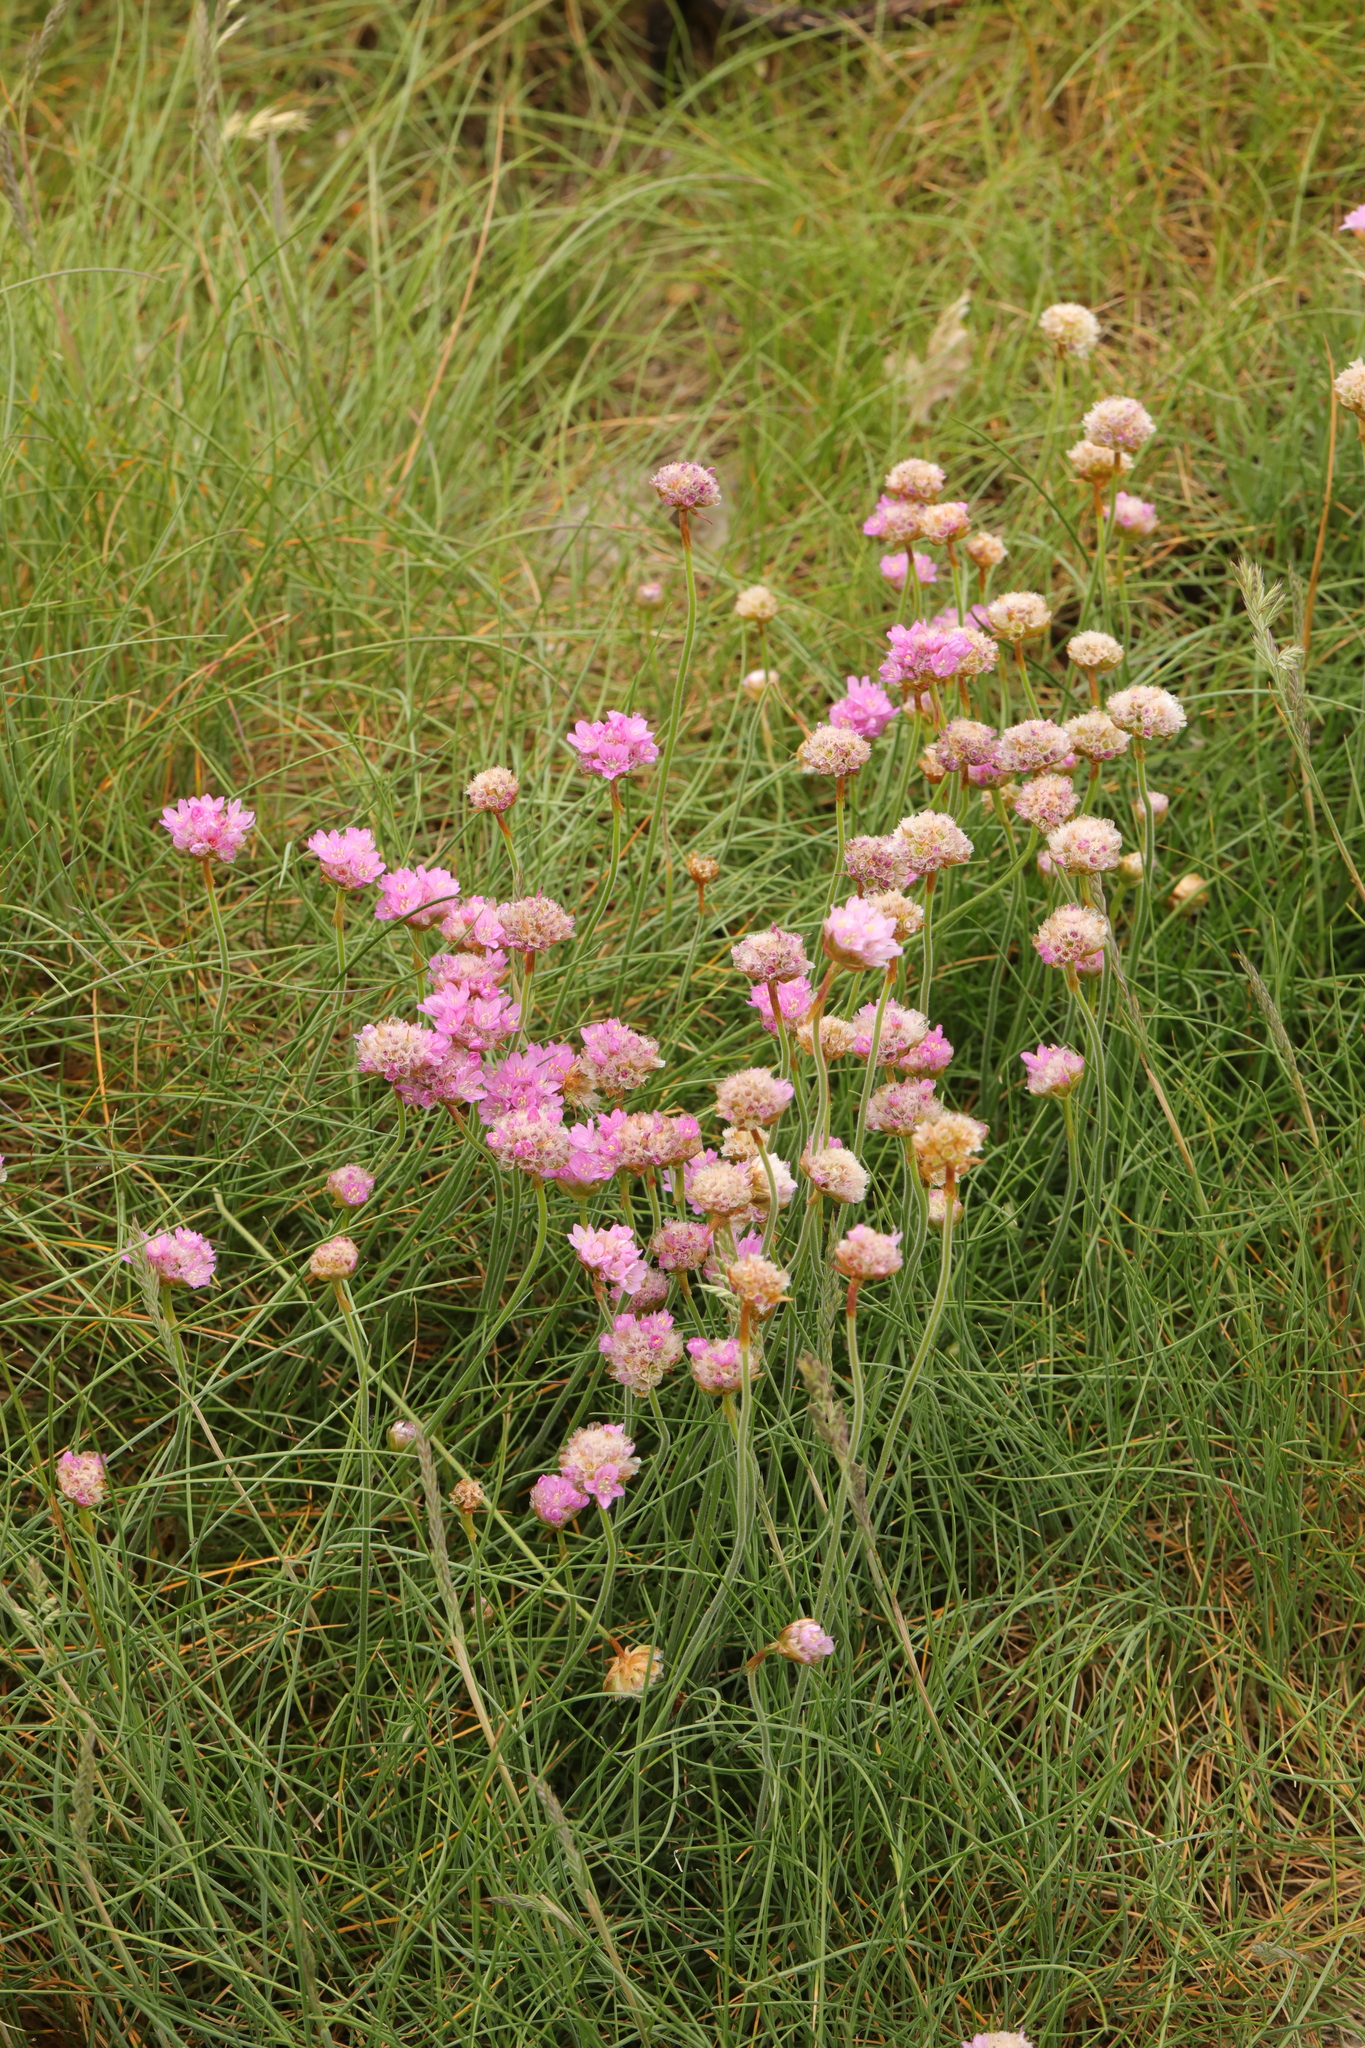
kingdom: Plantae
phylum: Tracheophyta
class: Magnoliopsida
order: Caryophyllales
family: Plumbaginaceae
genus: Armeria
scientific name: Armeria maritima
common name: Thrift
